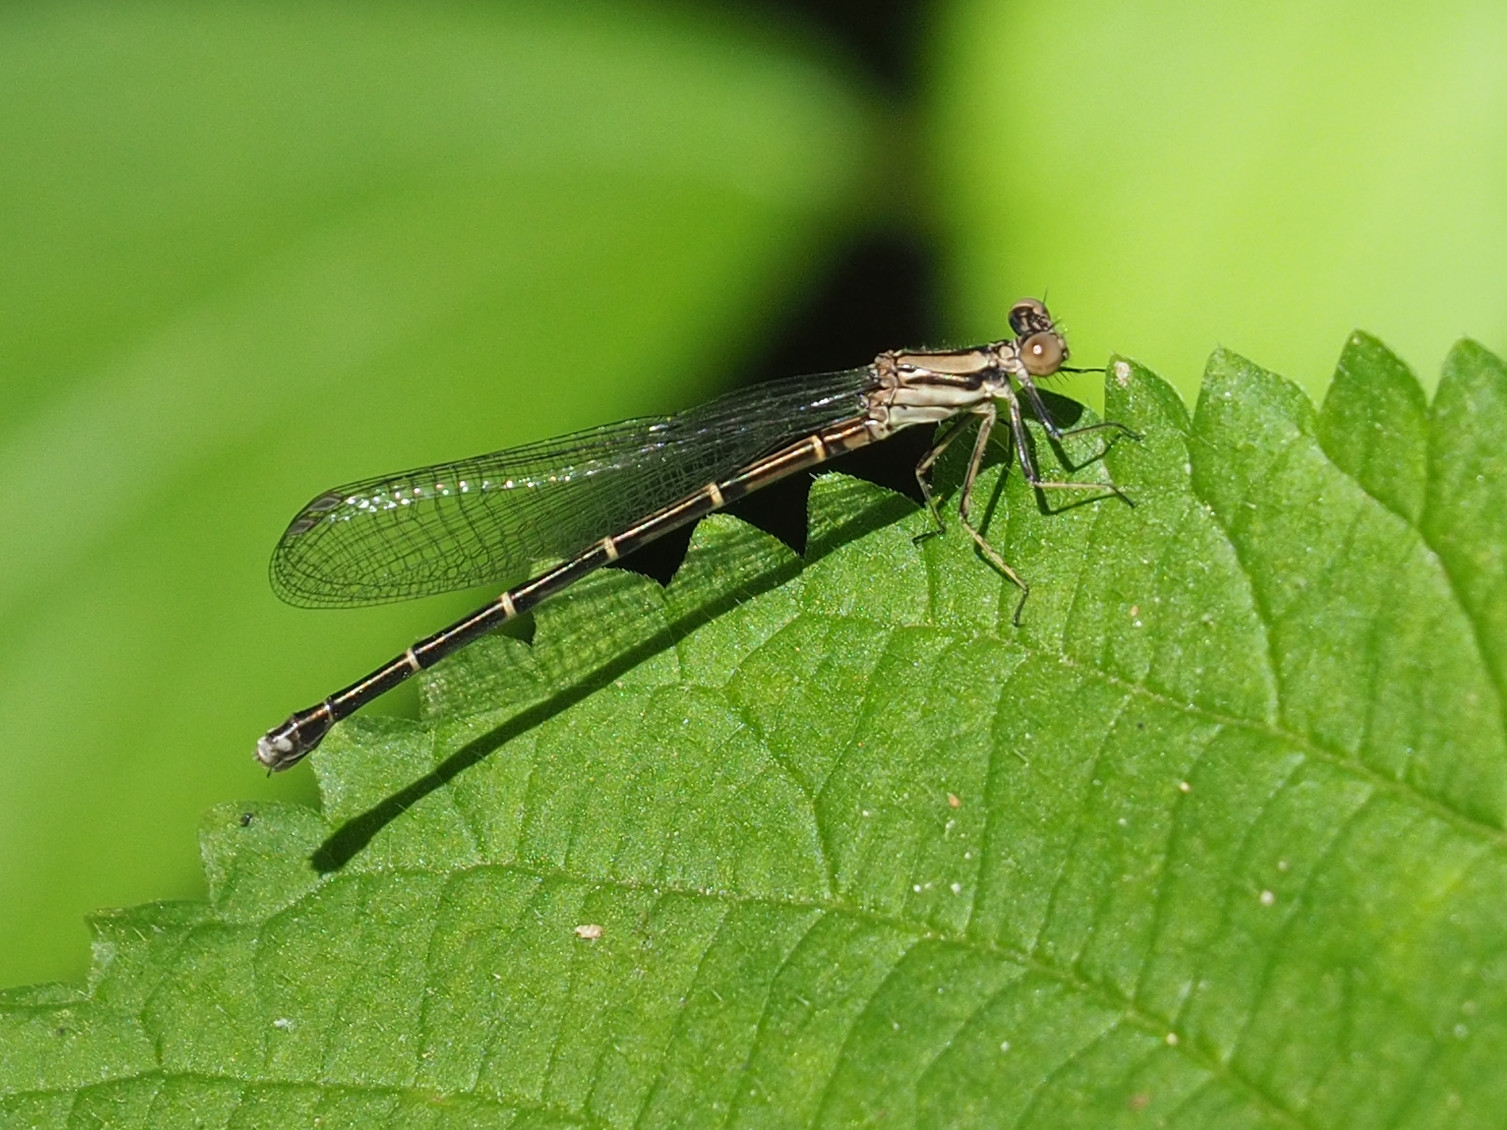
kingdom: Animalia
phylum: Arthropoda
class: Insecta
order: Odonata
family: Coenagrionidae
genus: Argia
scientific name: Argia tibialis
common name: Blue-tipped dancer
